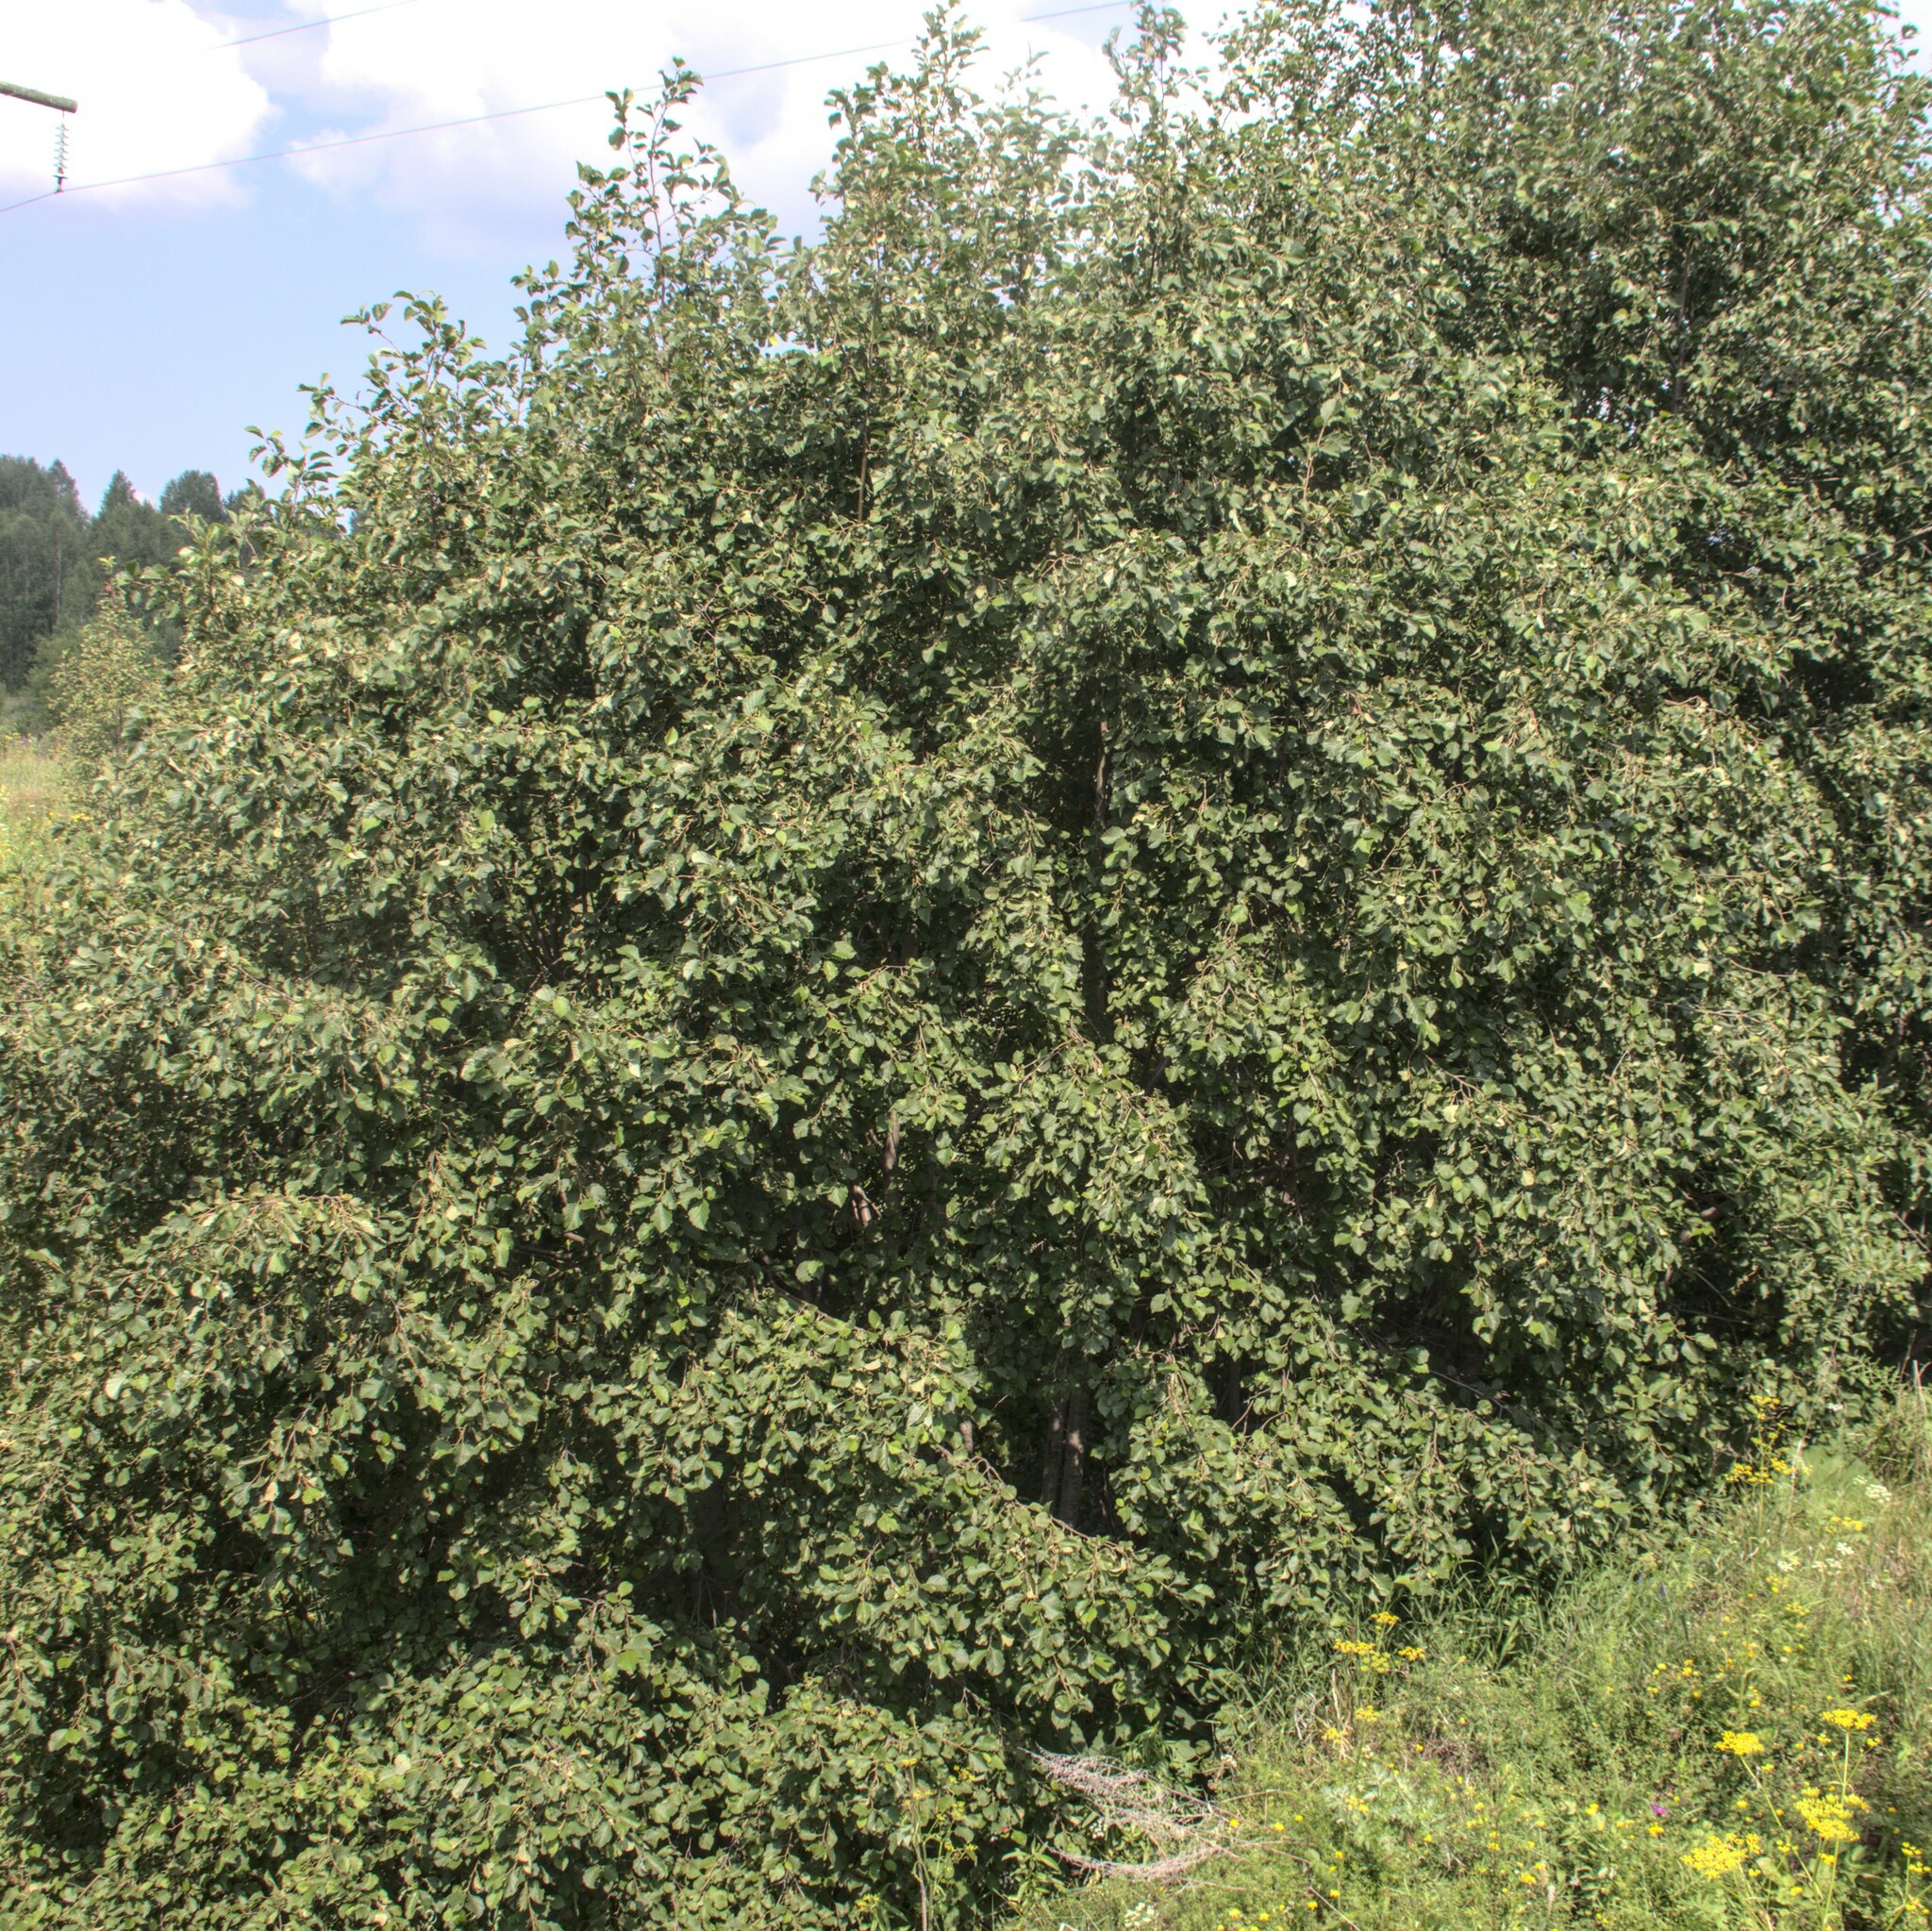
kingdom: Plantae
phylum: Tracheophyta
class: Magnoliopsida
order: Fagales
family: Betulaceae
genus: Alnus
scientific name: Alnus incana
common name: Grey alder
